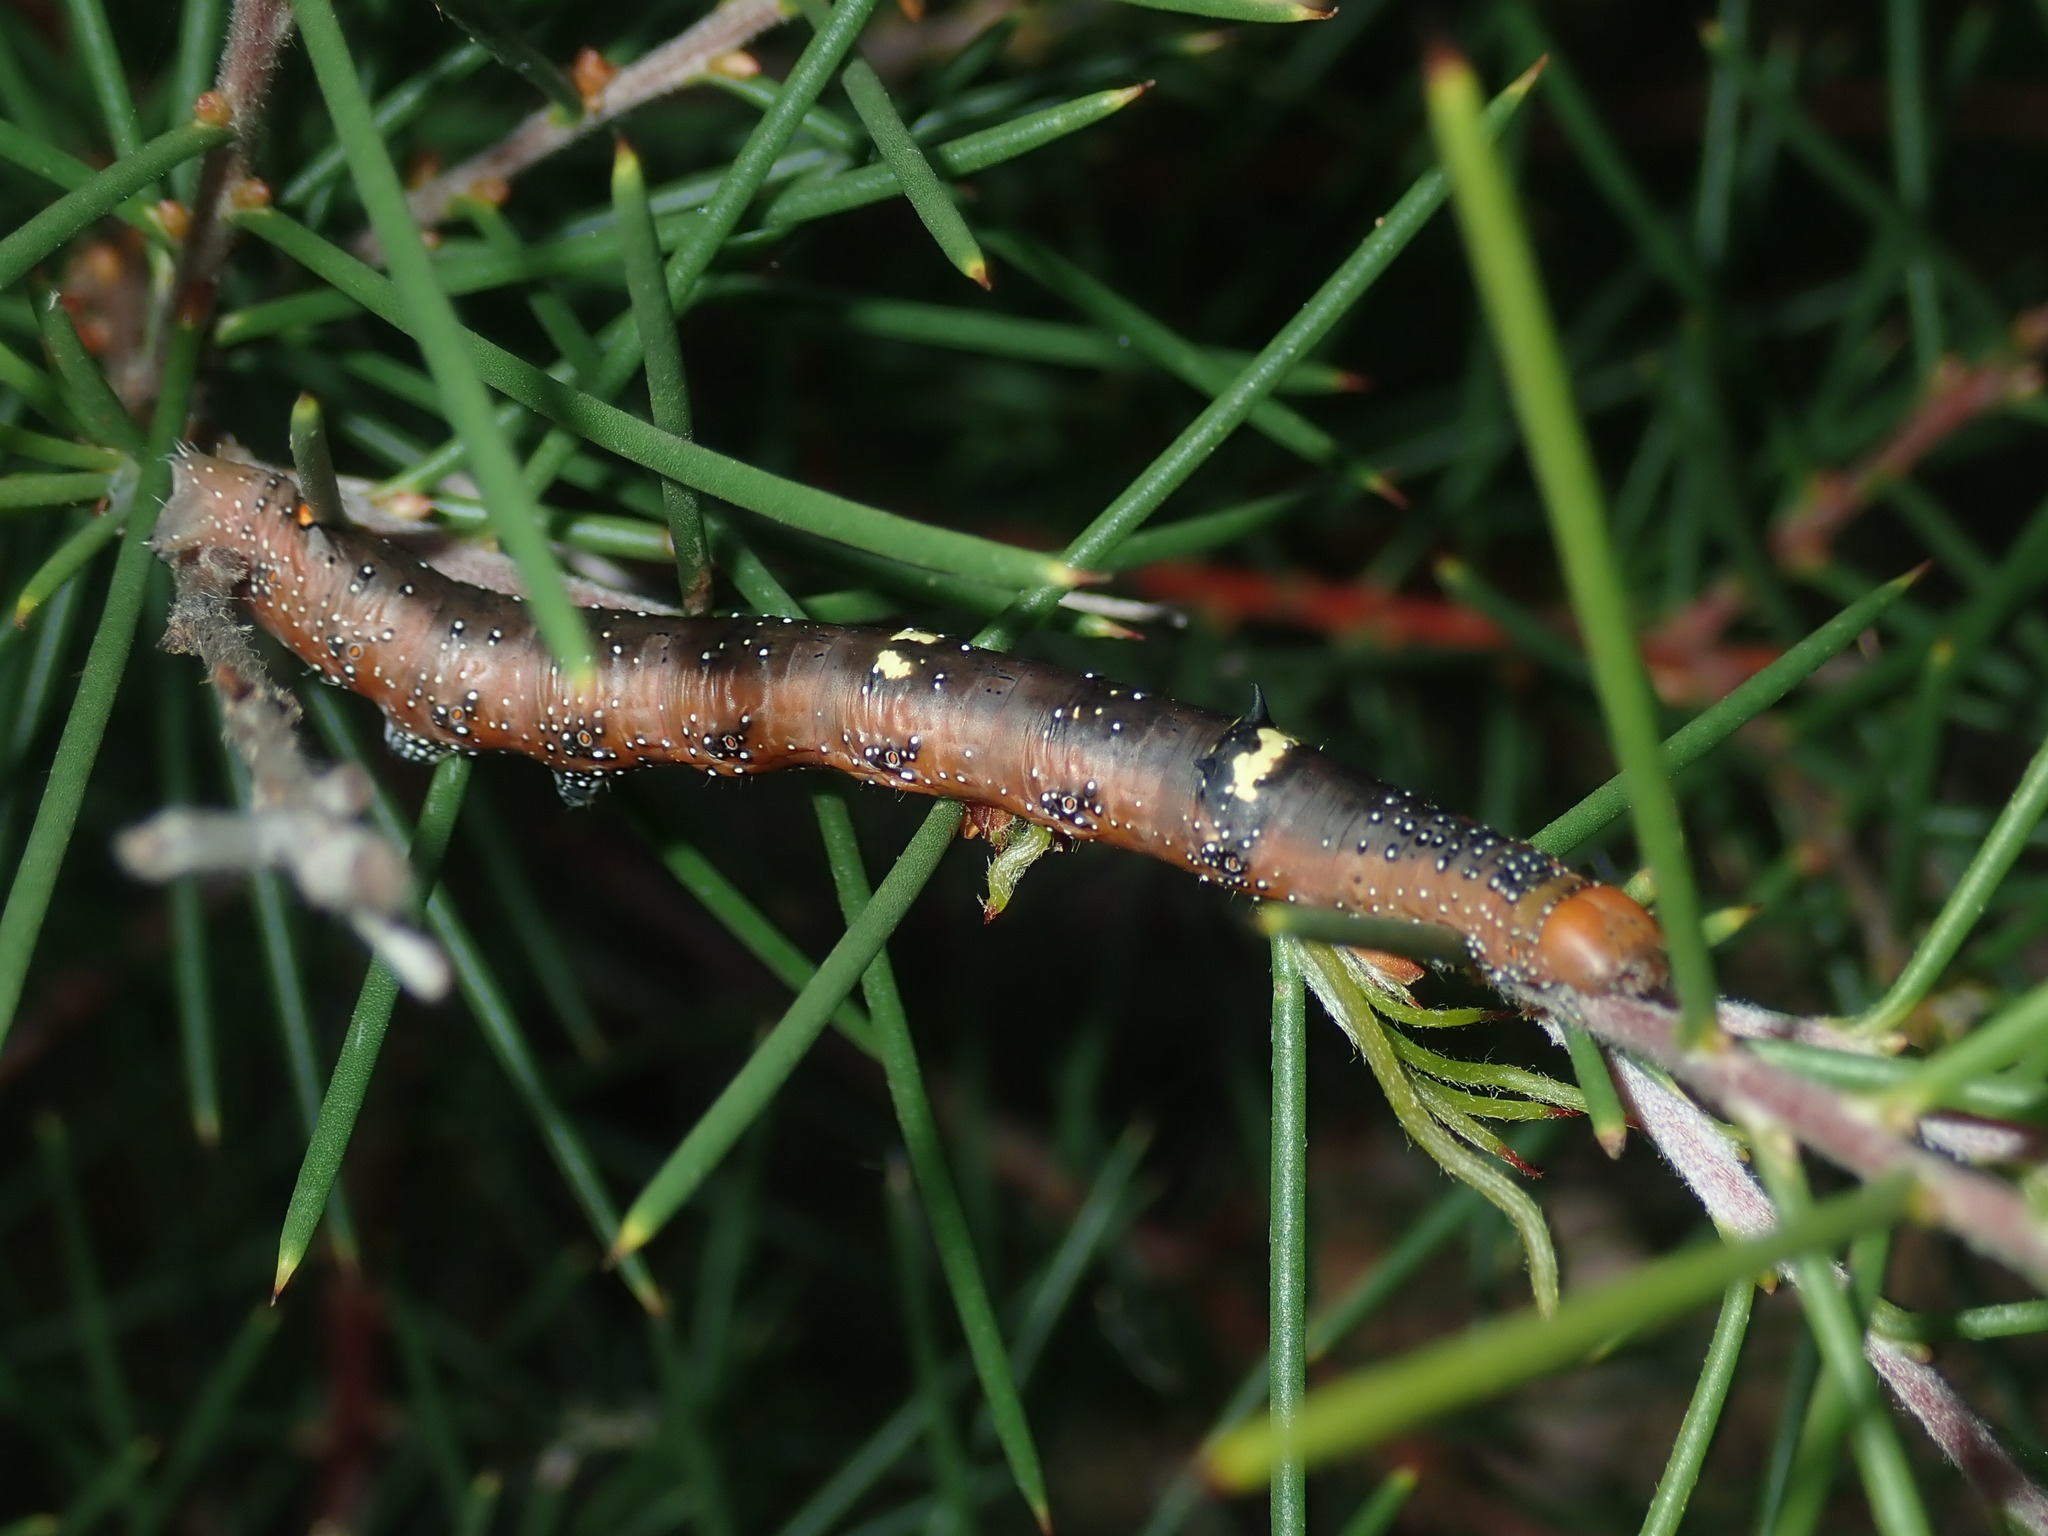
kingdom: Animalia
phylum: Arthropoda
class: Insecta
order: Lepidoptera
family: Geometridae
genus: Oenochroma
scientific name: Oenochroma vinaria
